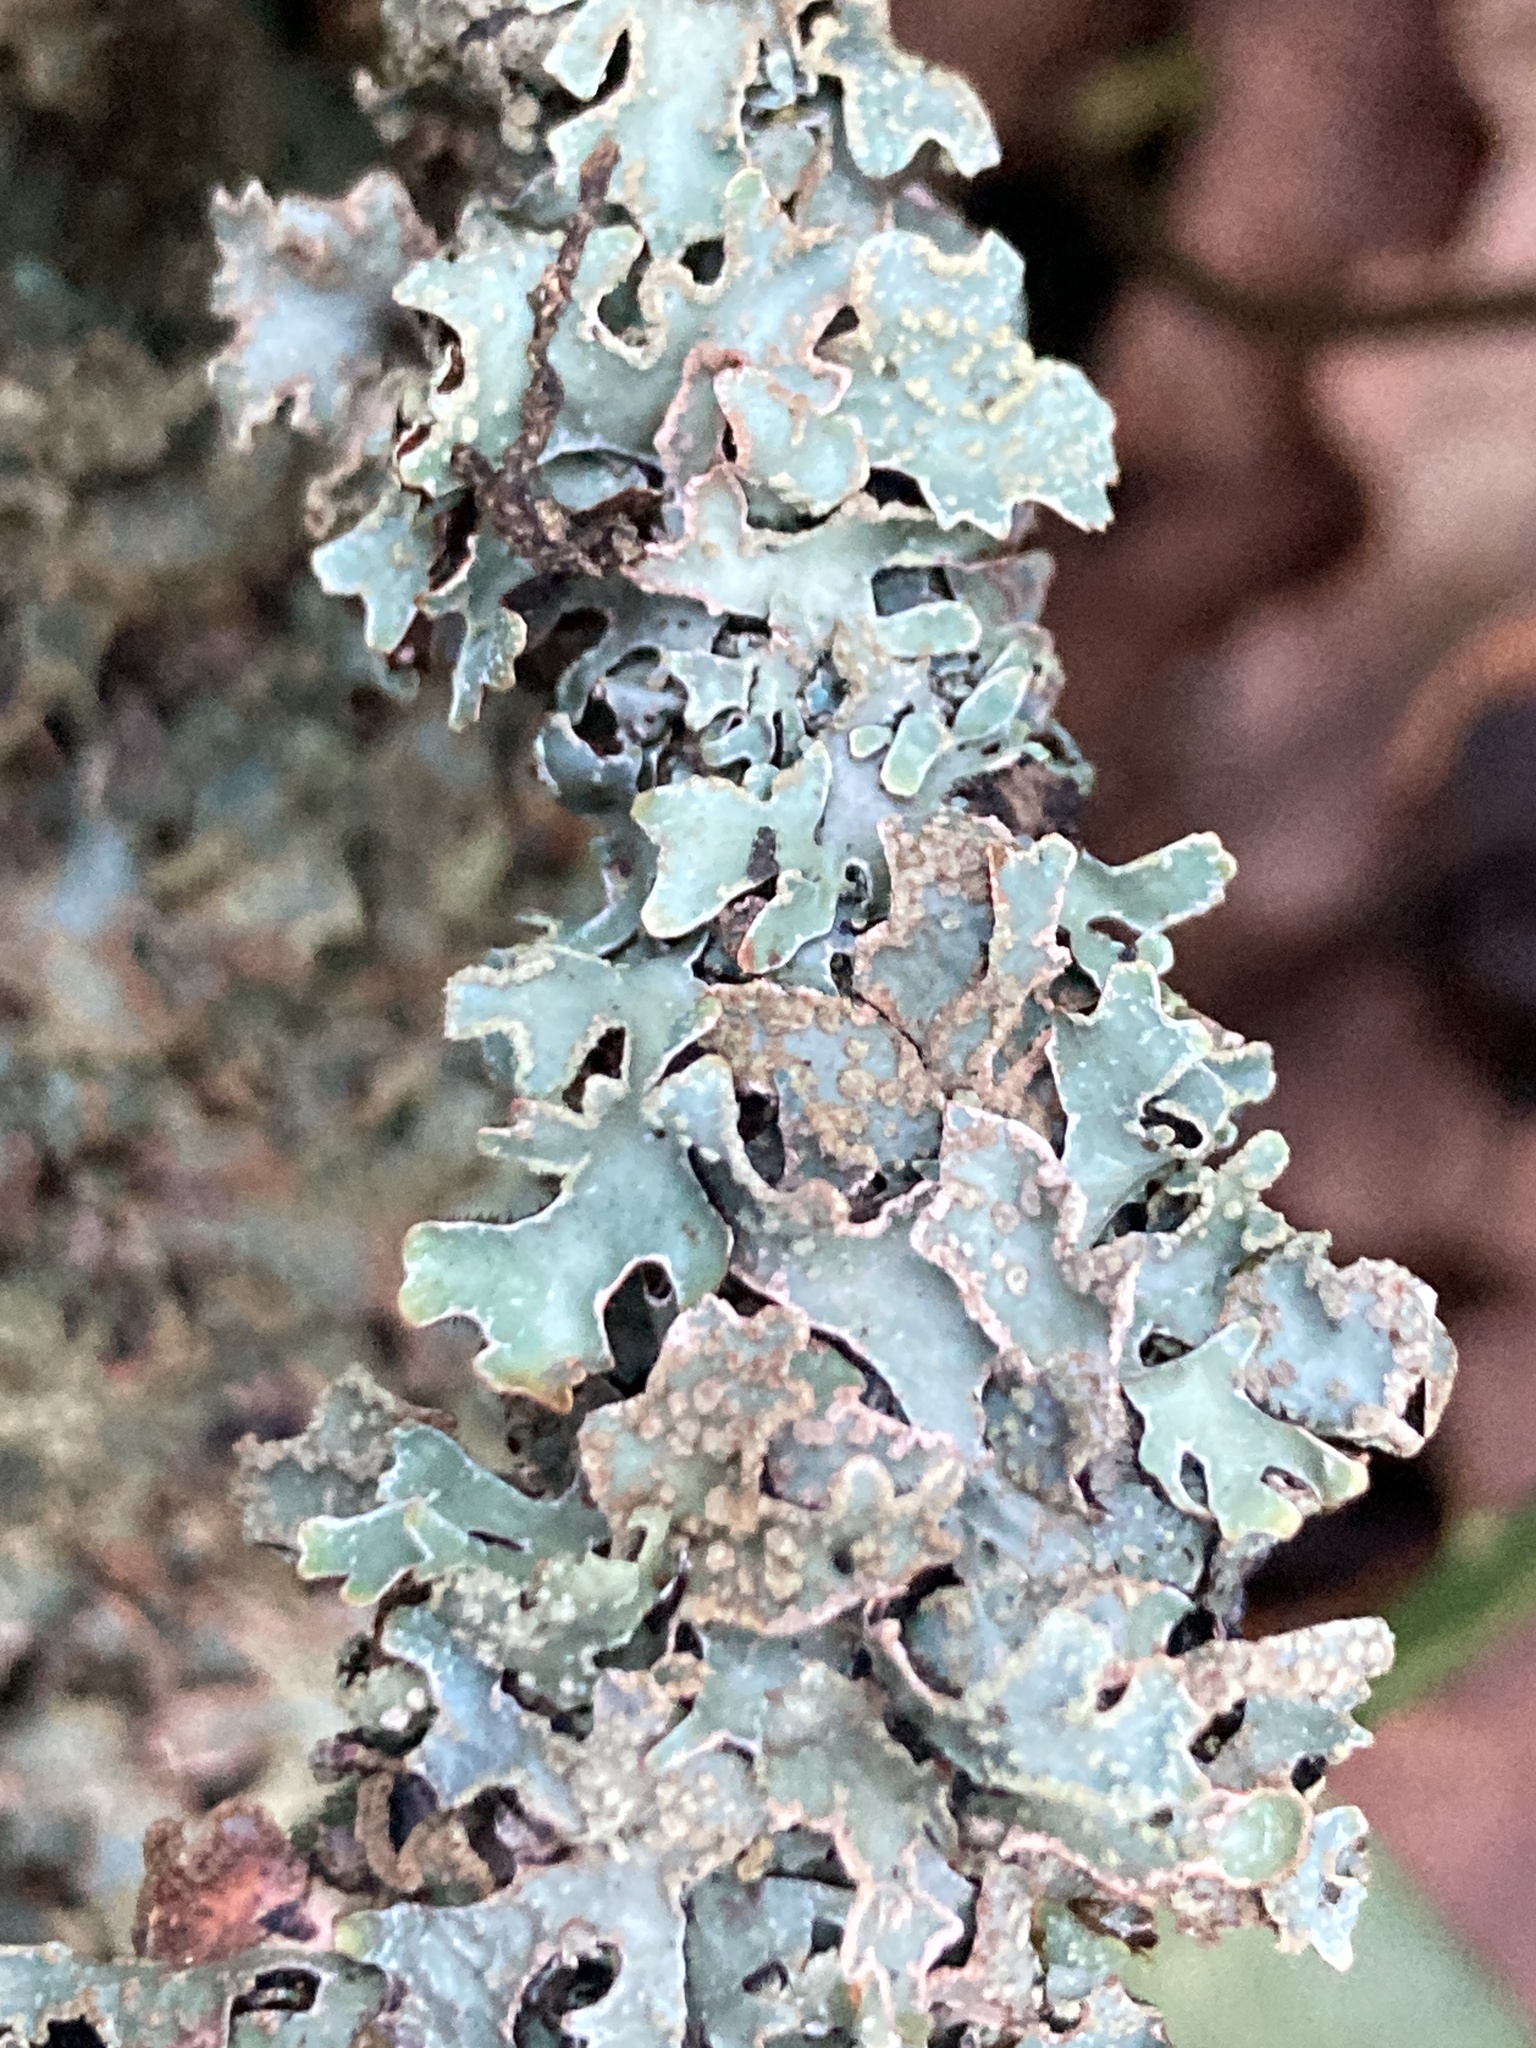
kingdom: Fungi
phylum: Ascomycota
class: Lecanoromycetes
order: Lecanorales
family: Parmeliaceae
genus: Parmelia
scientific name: Parmelia sulcata
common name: Netted shield lichen
